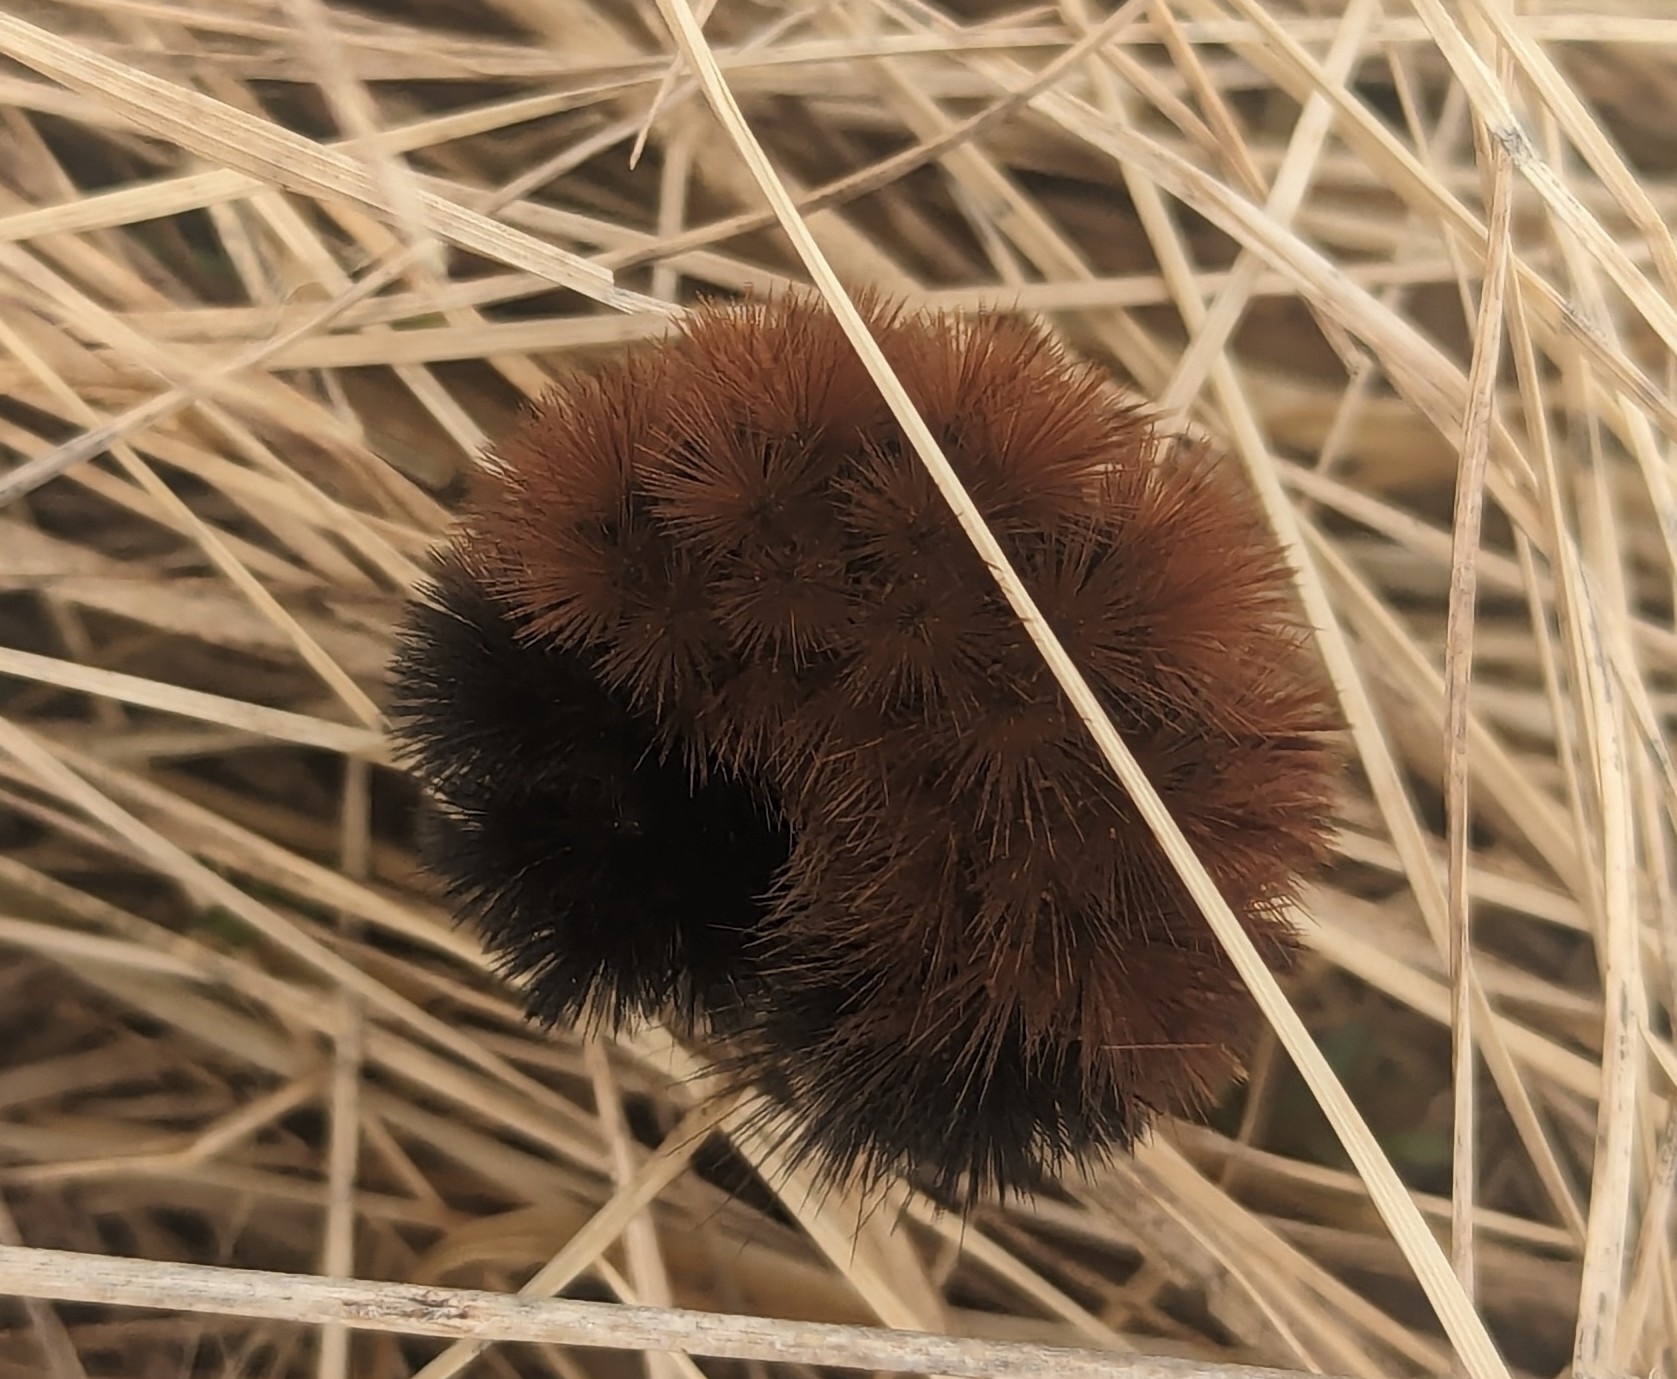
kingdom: Animalia
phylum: Arthropoda
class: Insecta
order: Lepidoptera
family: Erebidae
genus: Pyrrharctia
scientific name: Pyrrharctia isabella
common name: Isabella tiger moth
